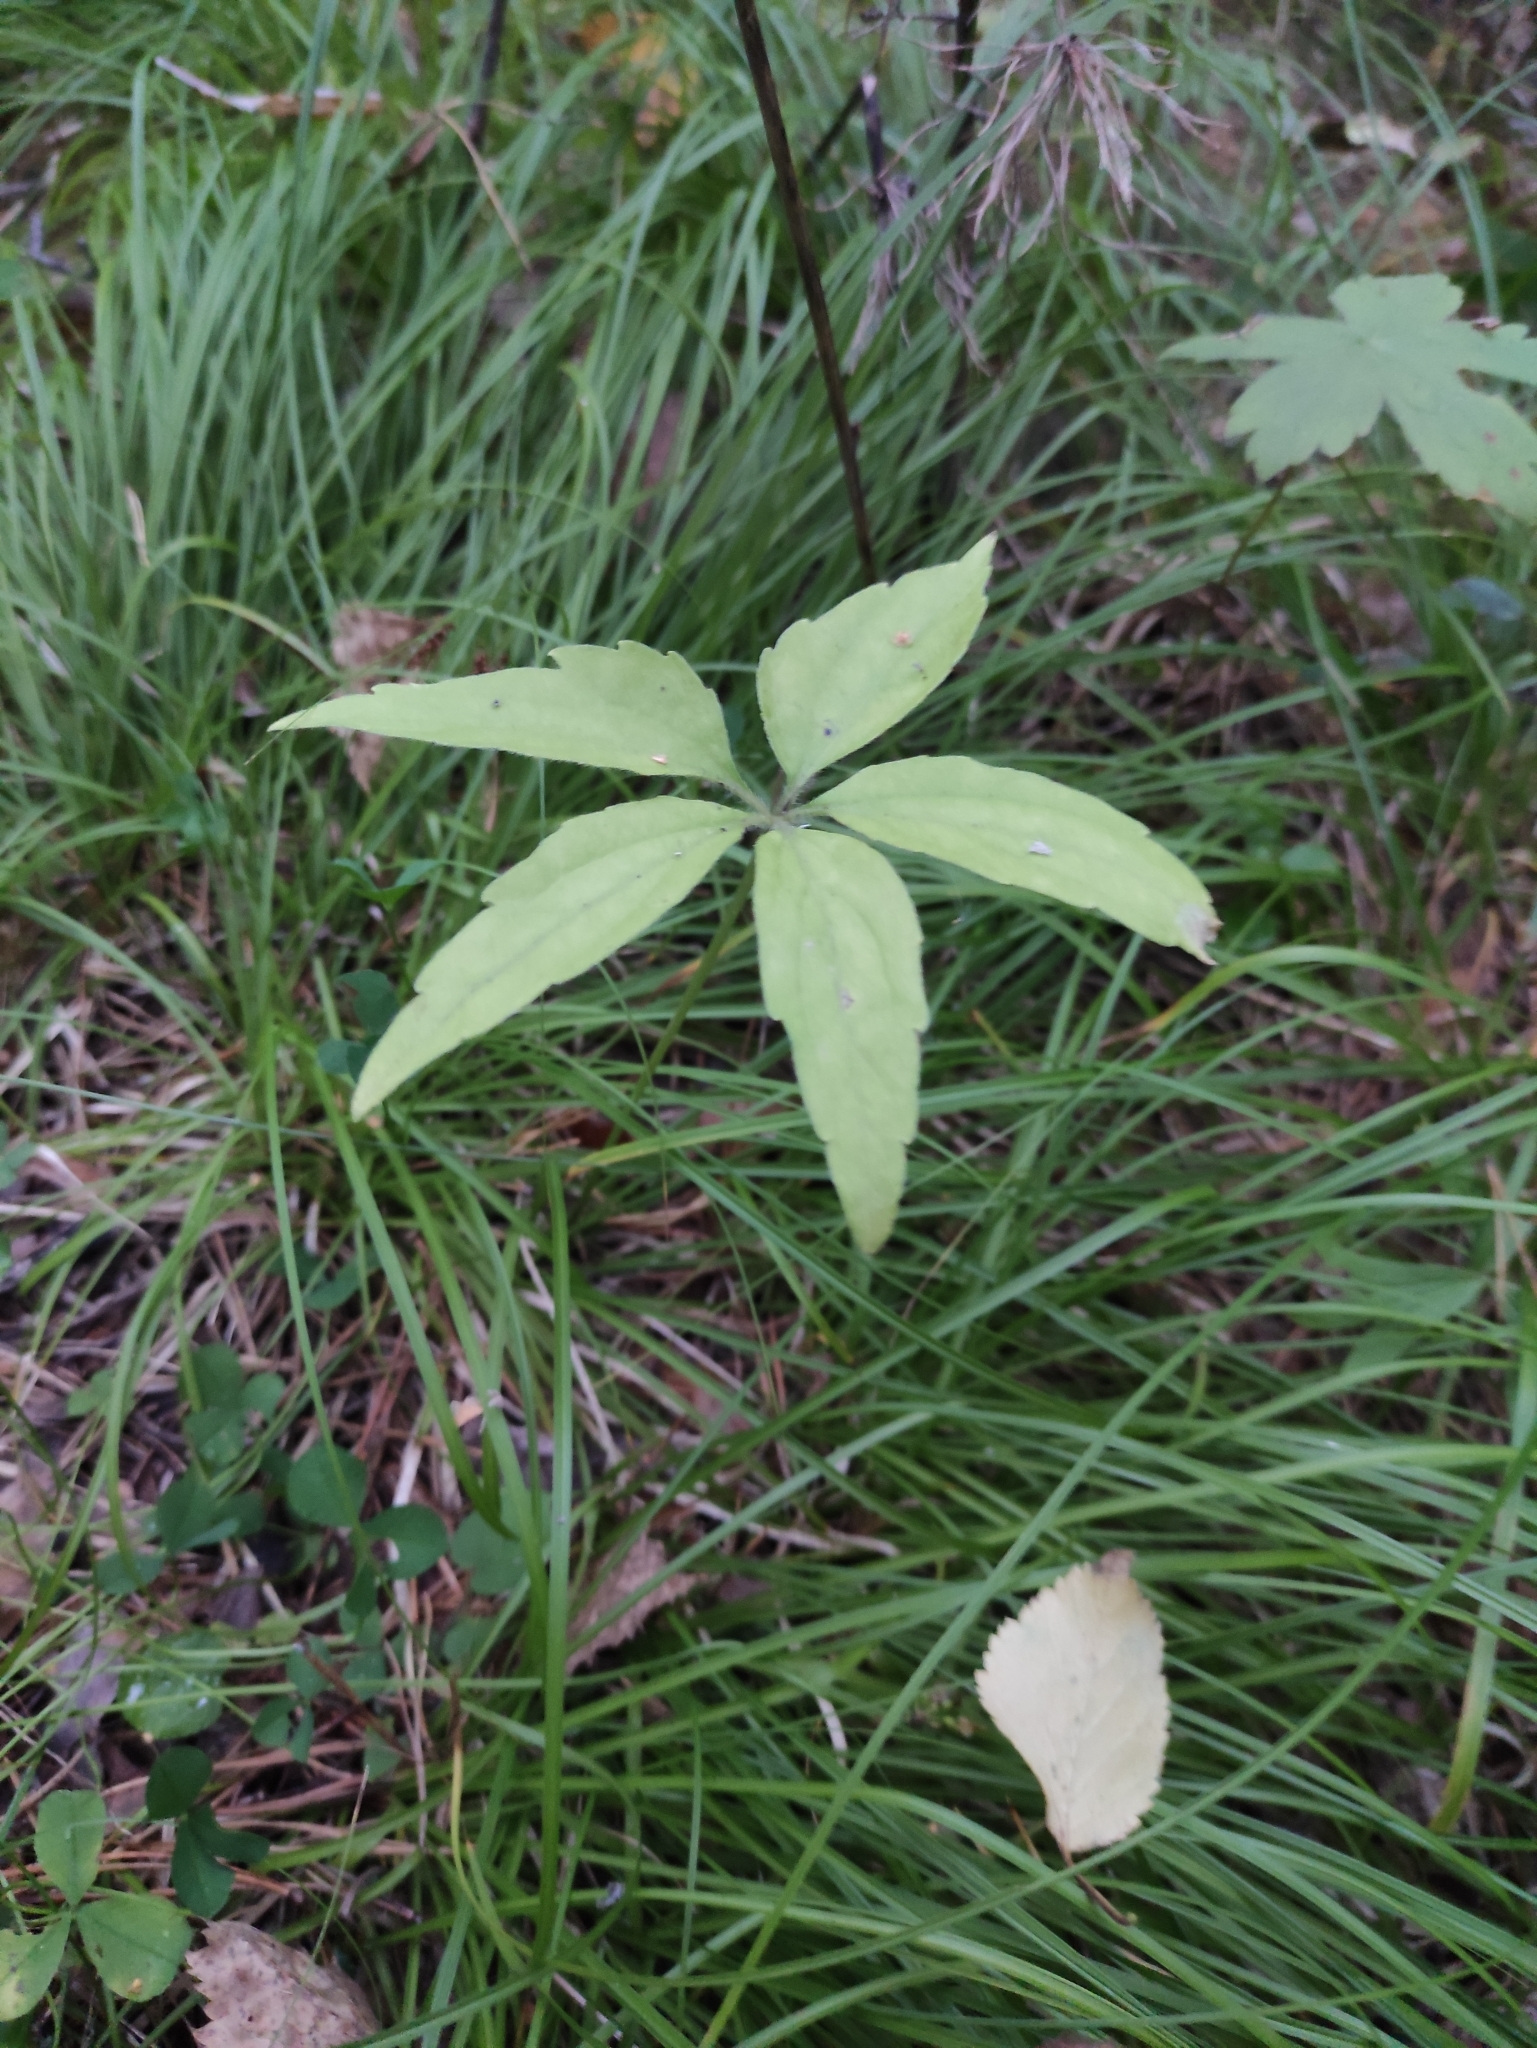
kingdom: Plantae
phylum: Tracheophyta
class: Magnoliopsida
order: Malpighiales
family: Violaceae
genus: Viola
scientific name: Viola dactyloides
